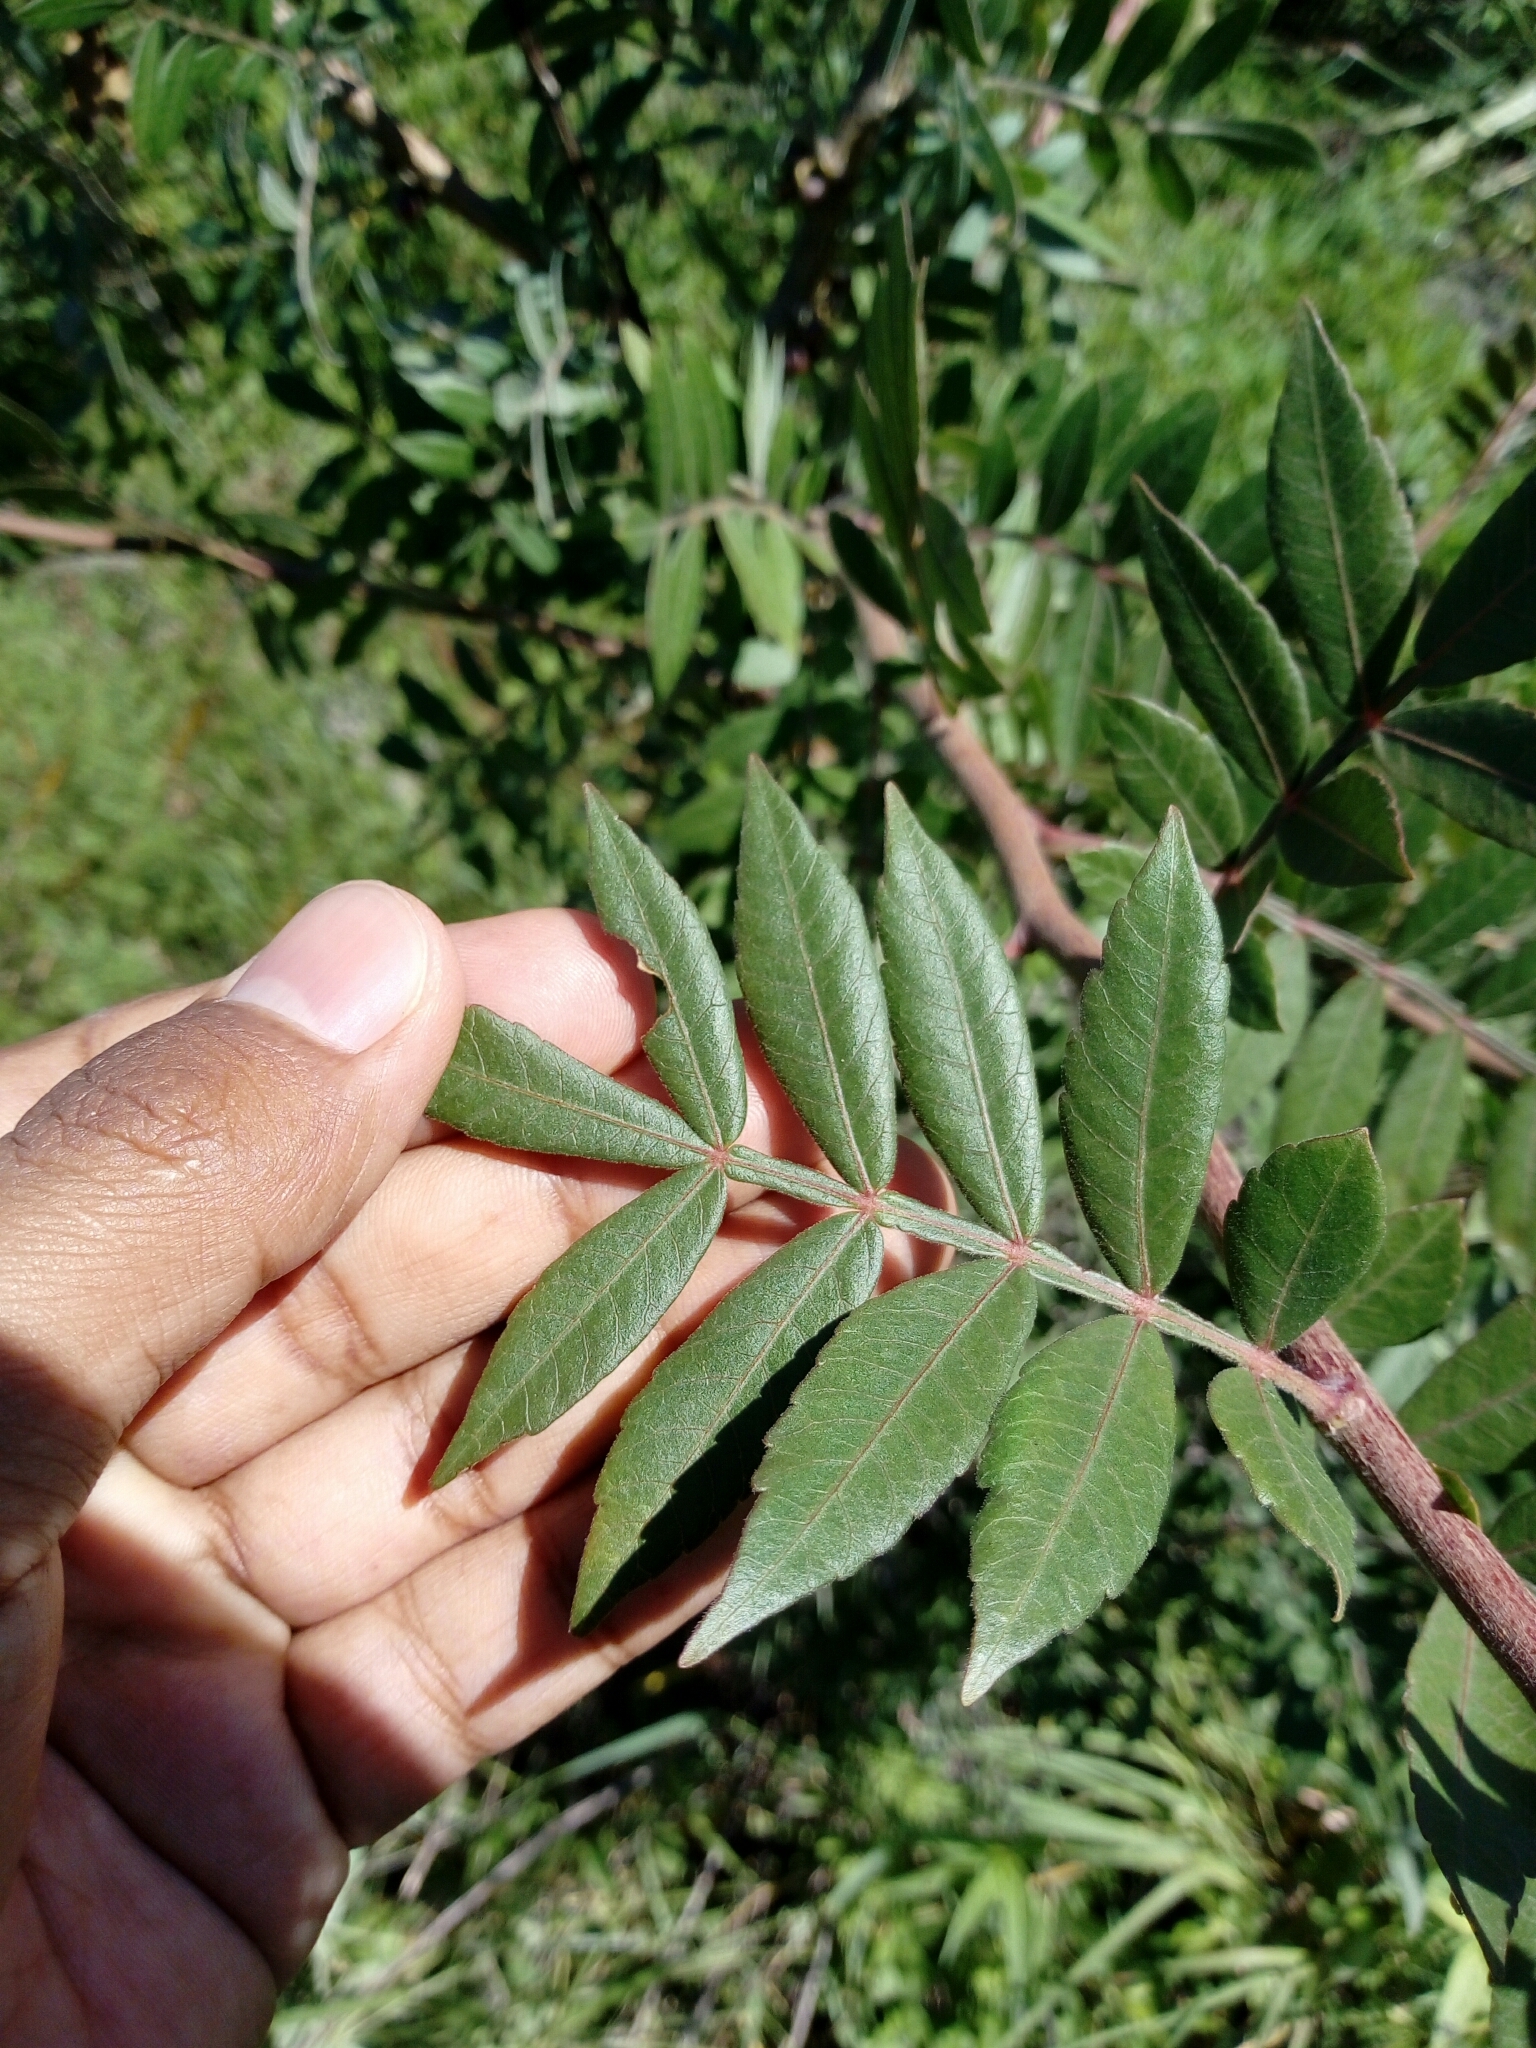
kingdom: Plantae
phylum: Tracheophyta
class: Magnoliopsida
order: Sapindales
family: Burseraceae
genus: Bursera
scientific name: Bursera ariensis
